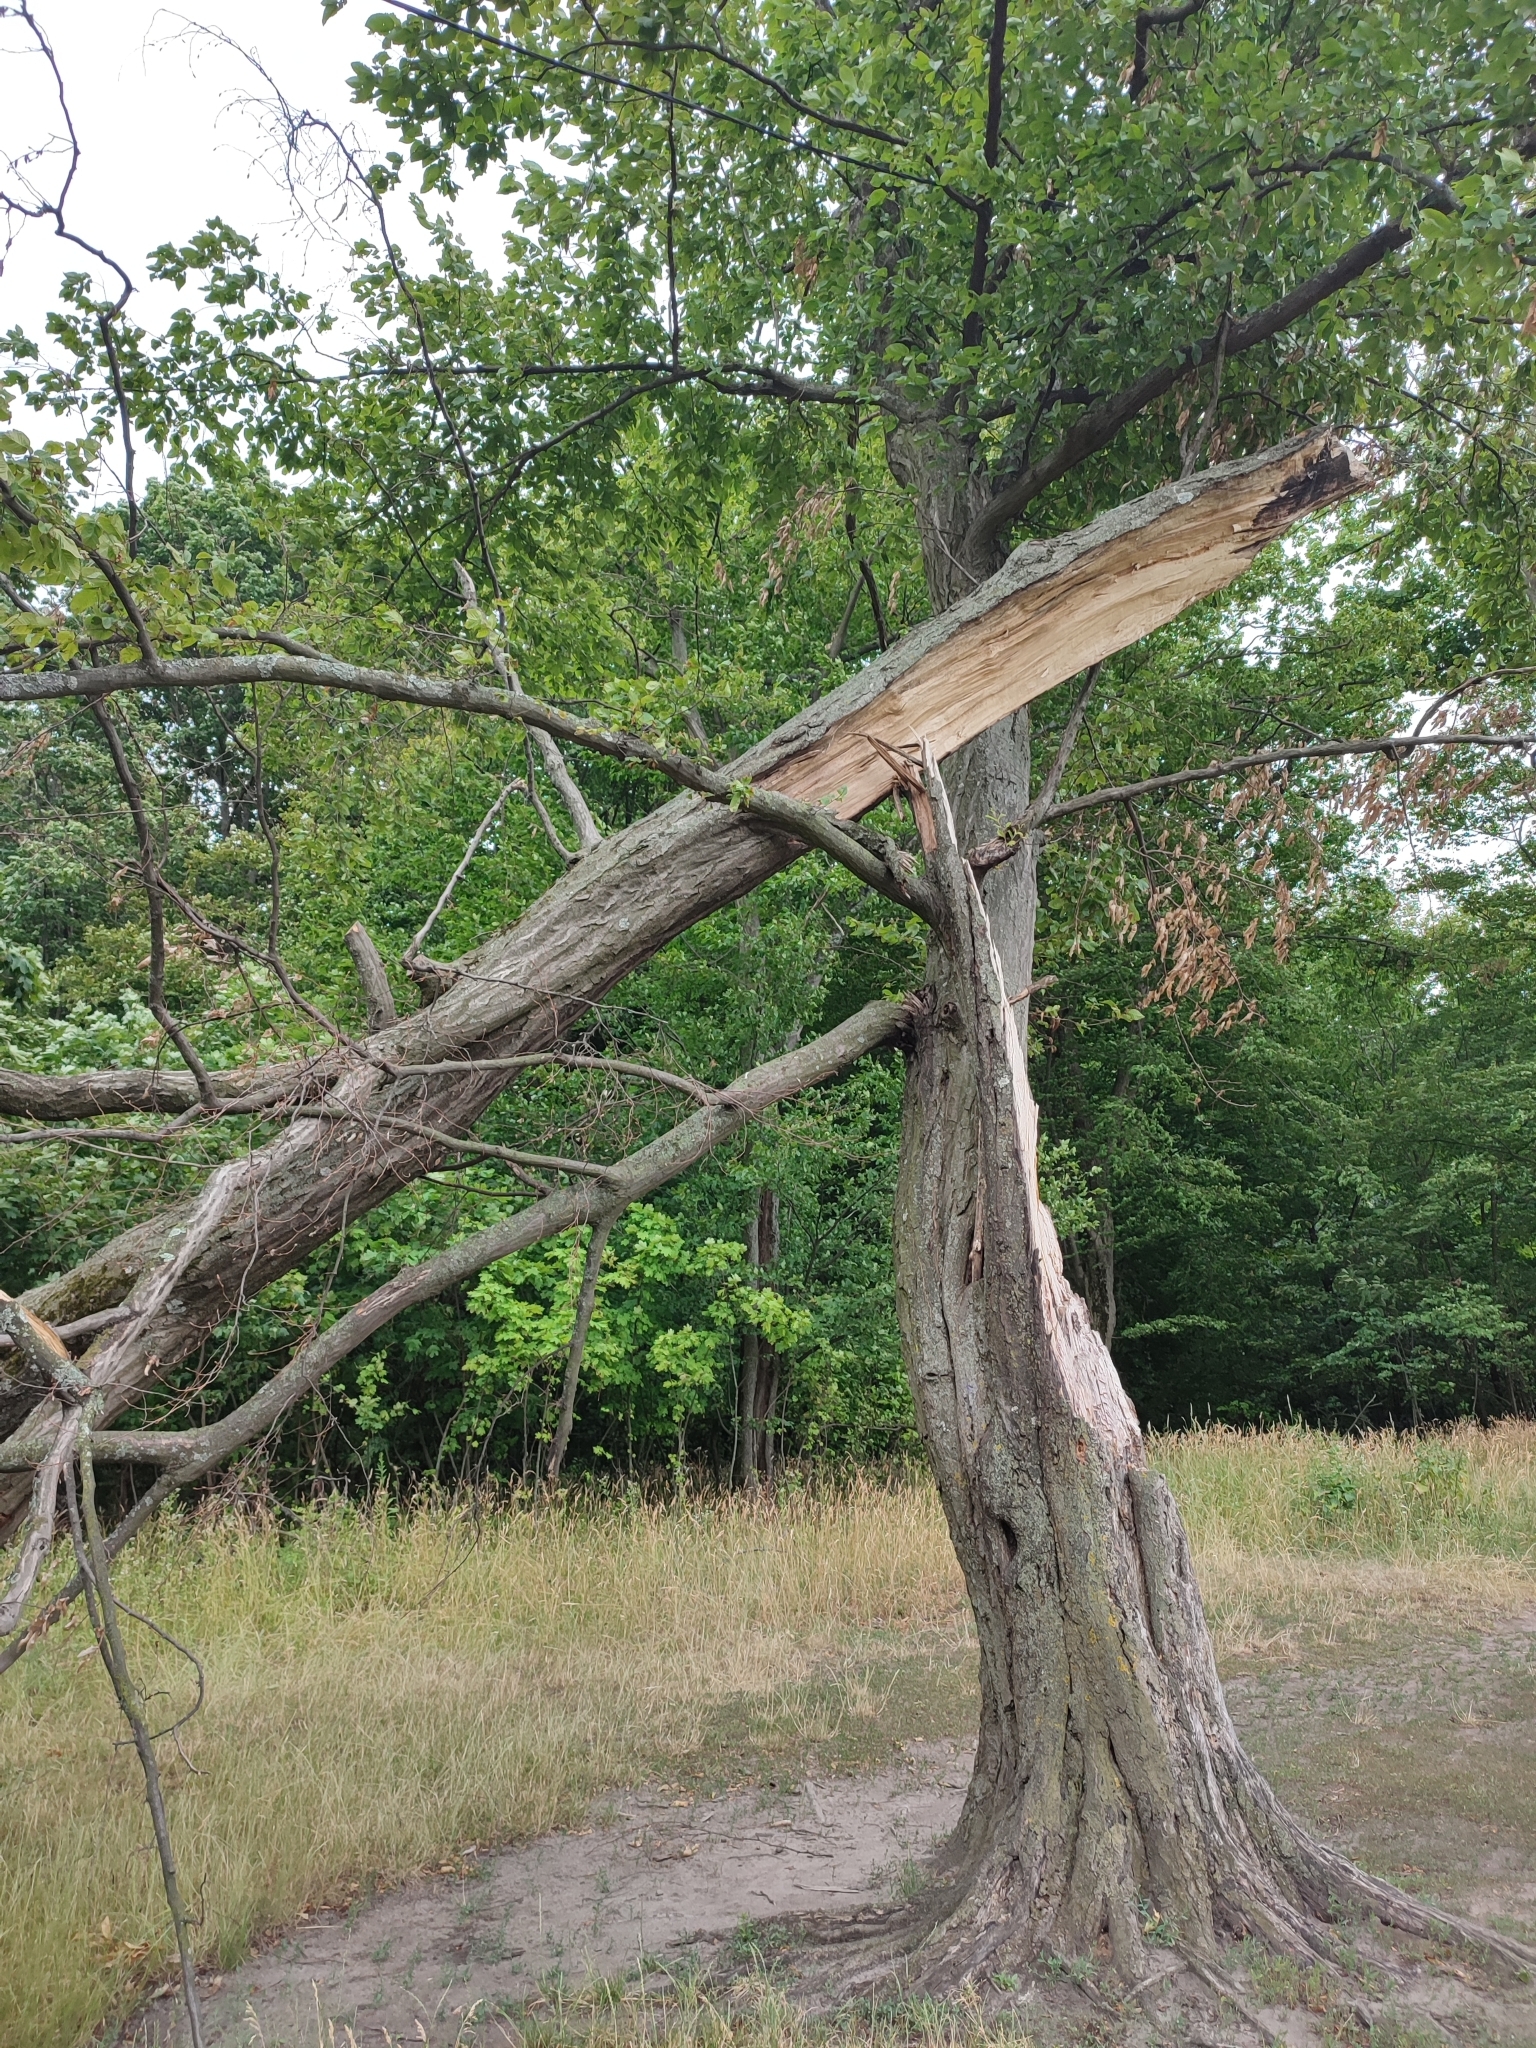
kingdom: Plantae
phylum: Tracheophyta
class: Magnoliopsida
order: Fagales
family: Betulaceae
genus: Carpinus
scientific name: Carpinus betulus
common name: Hornbeam
